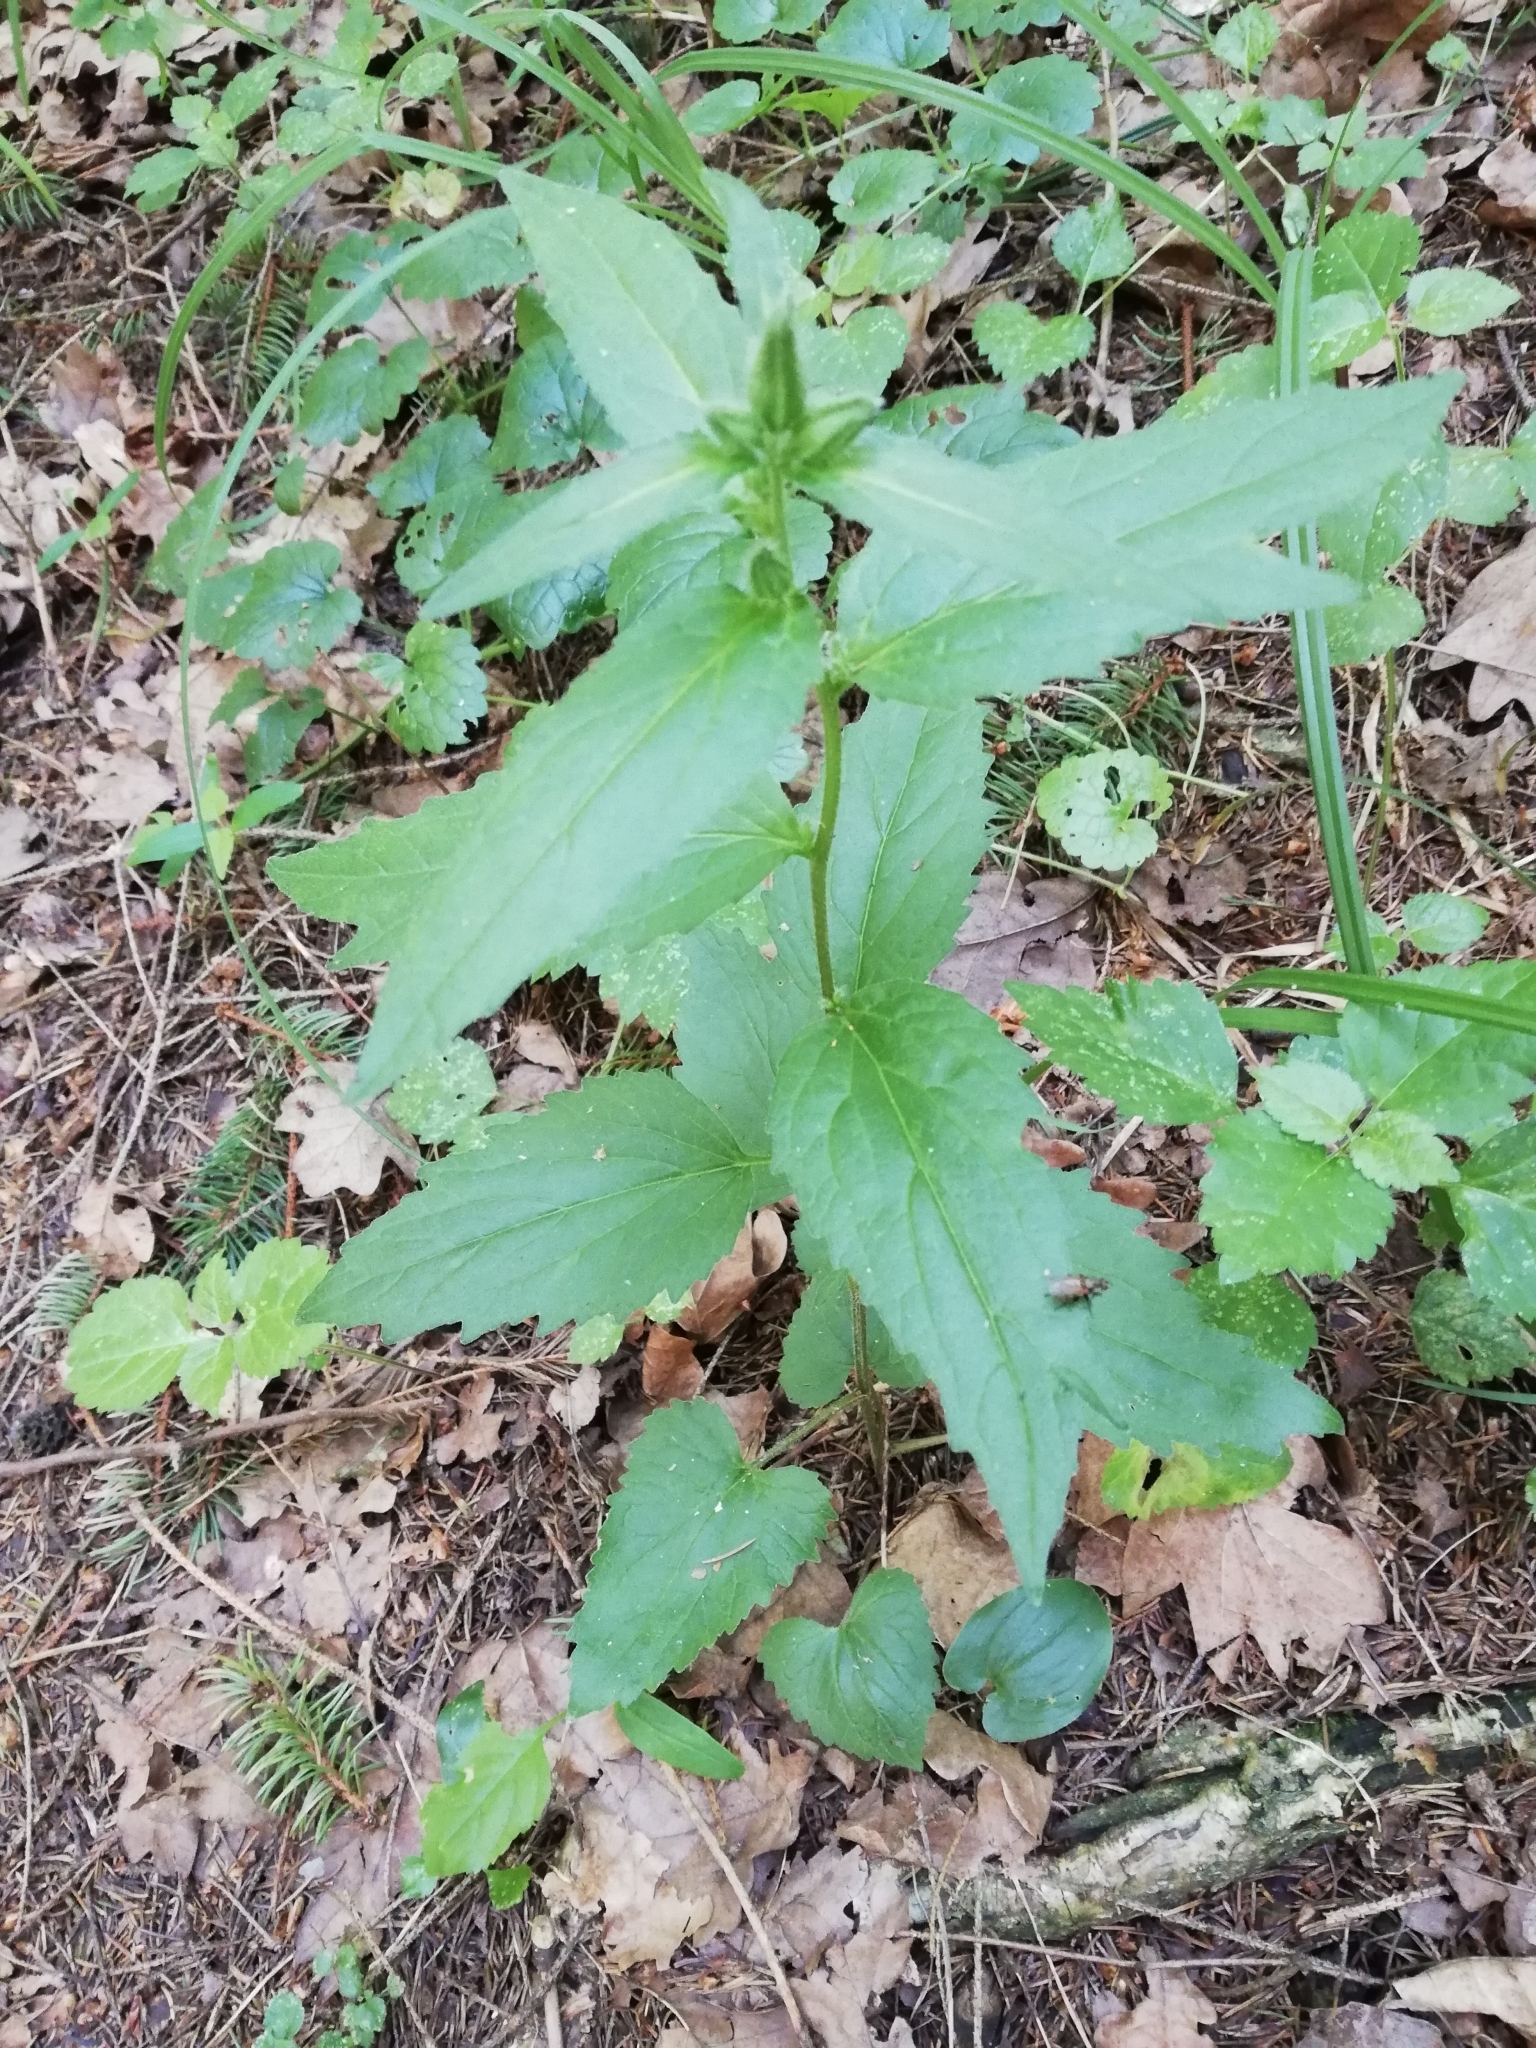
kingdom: Plantae
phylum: Tracheophyta
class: Magnoliopsida
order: Asterales
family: Campanulaceae
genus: Campanula
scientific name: Campanula trachelium
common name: Nettle-leaved bellflower
